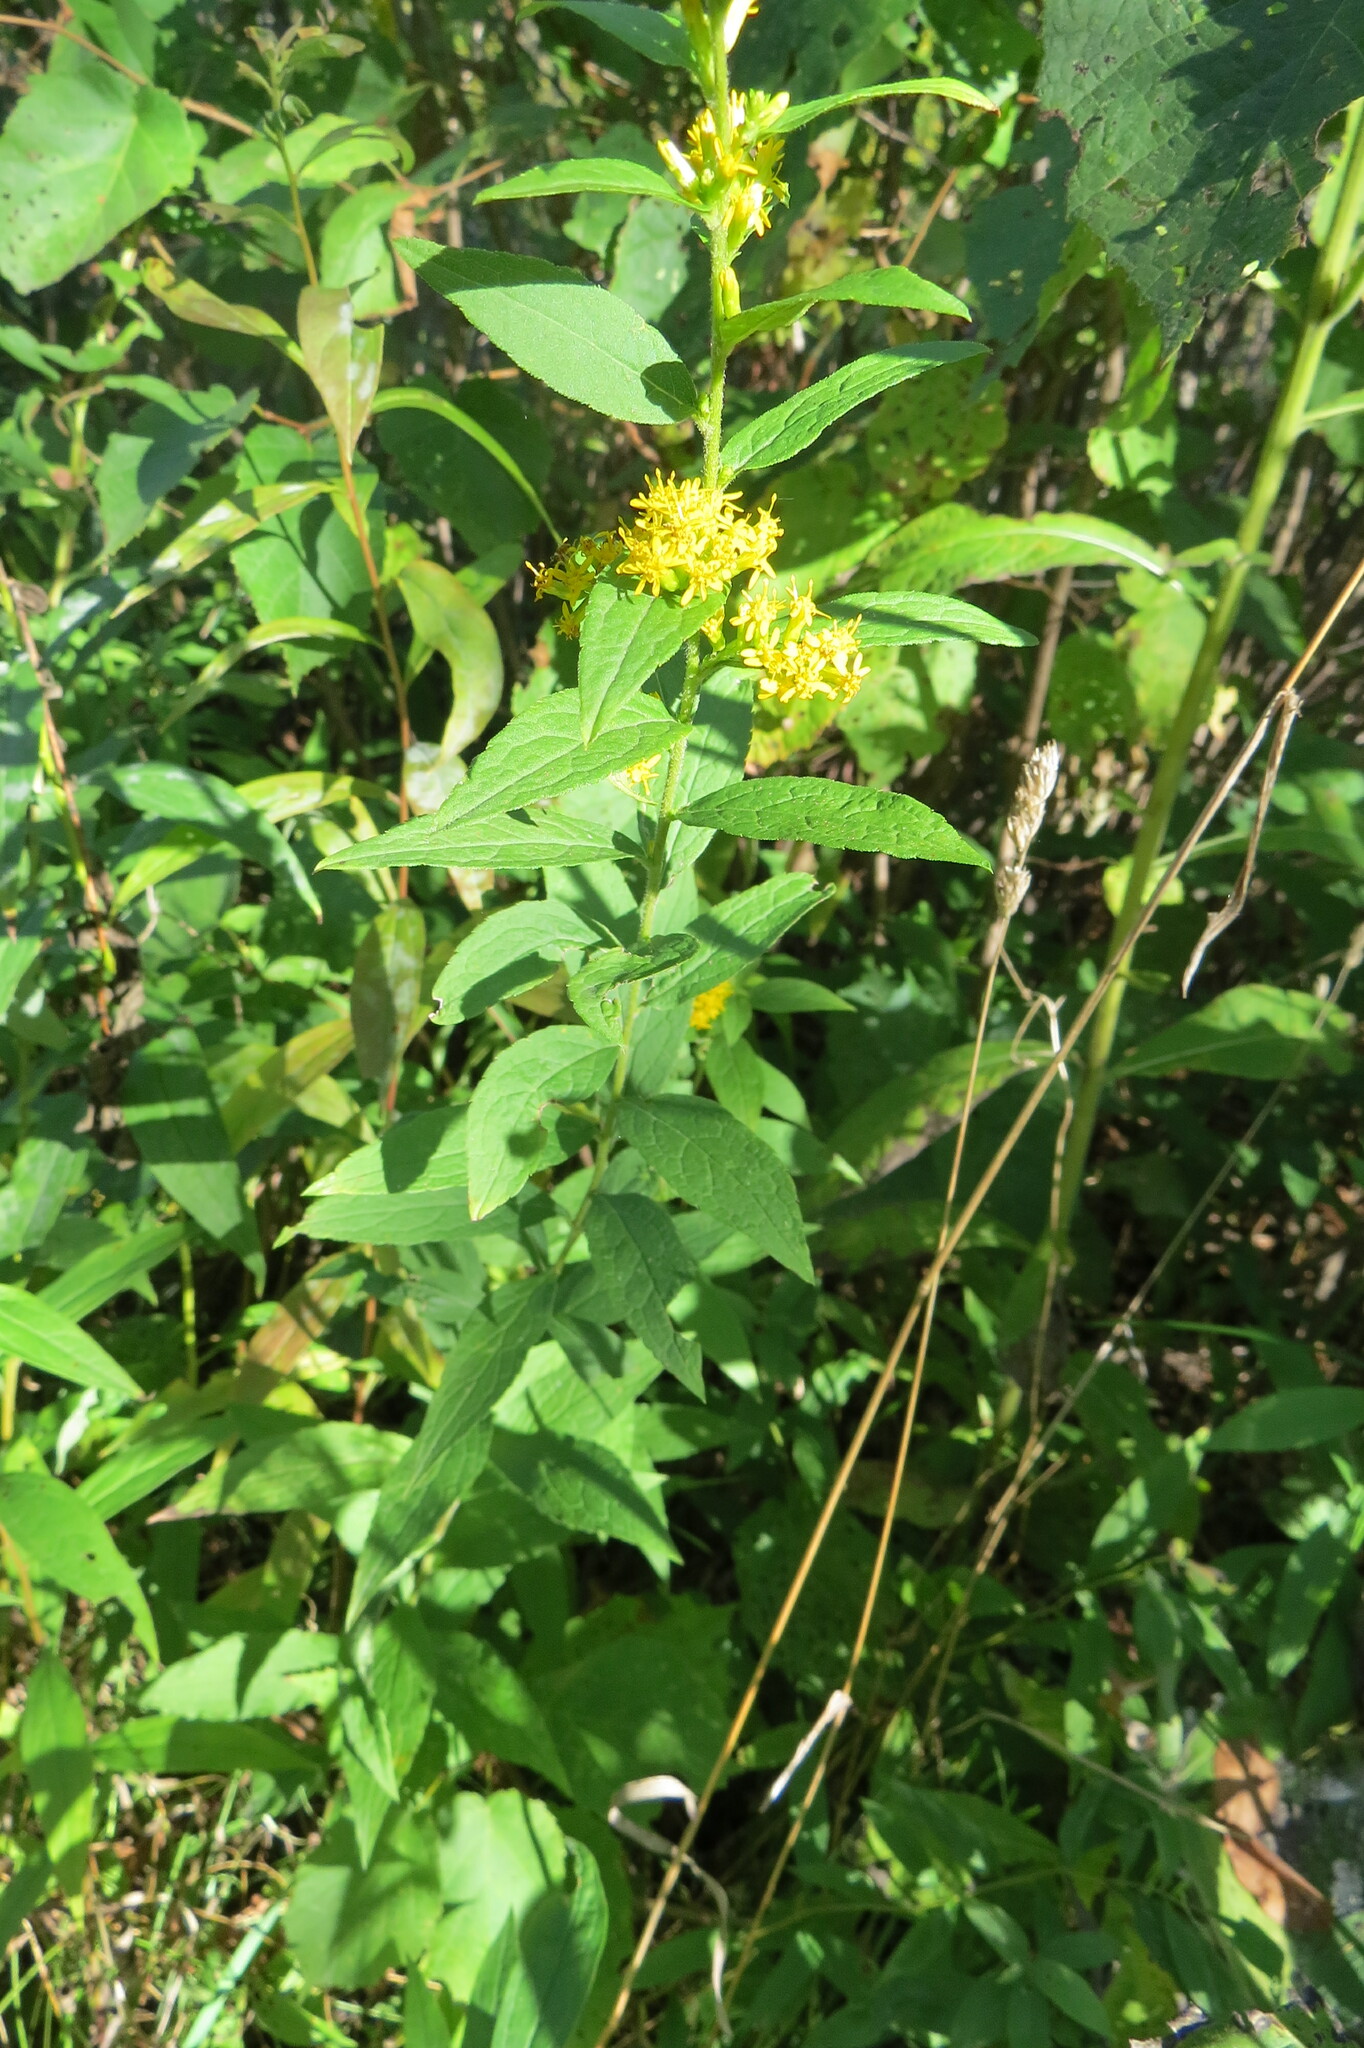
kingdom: Plantae
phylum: Tracheophyta
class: Magnoliopsida
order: Asterales
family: Asteraceae
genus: Solidago
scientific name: Solidago rugosa
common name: Rough-stemmed goldenrod
